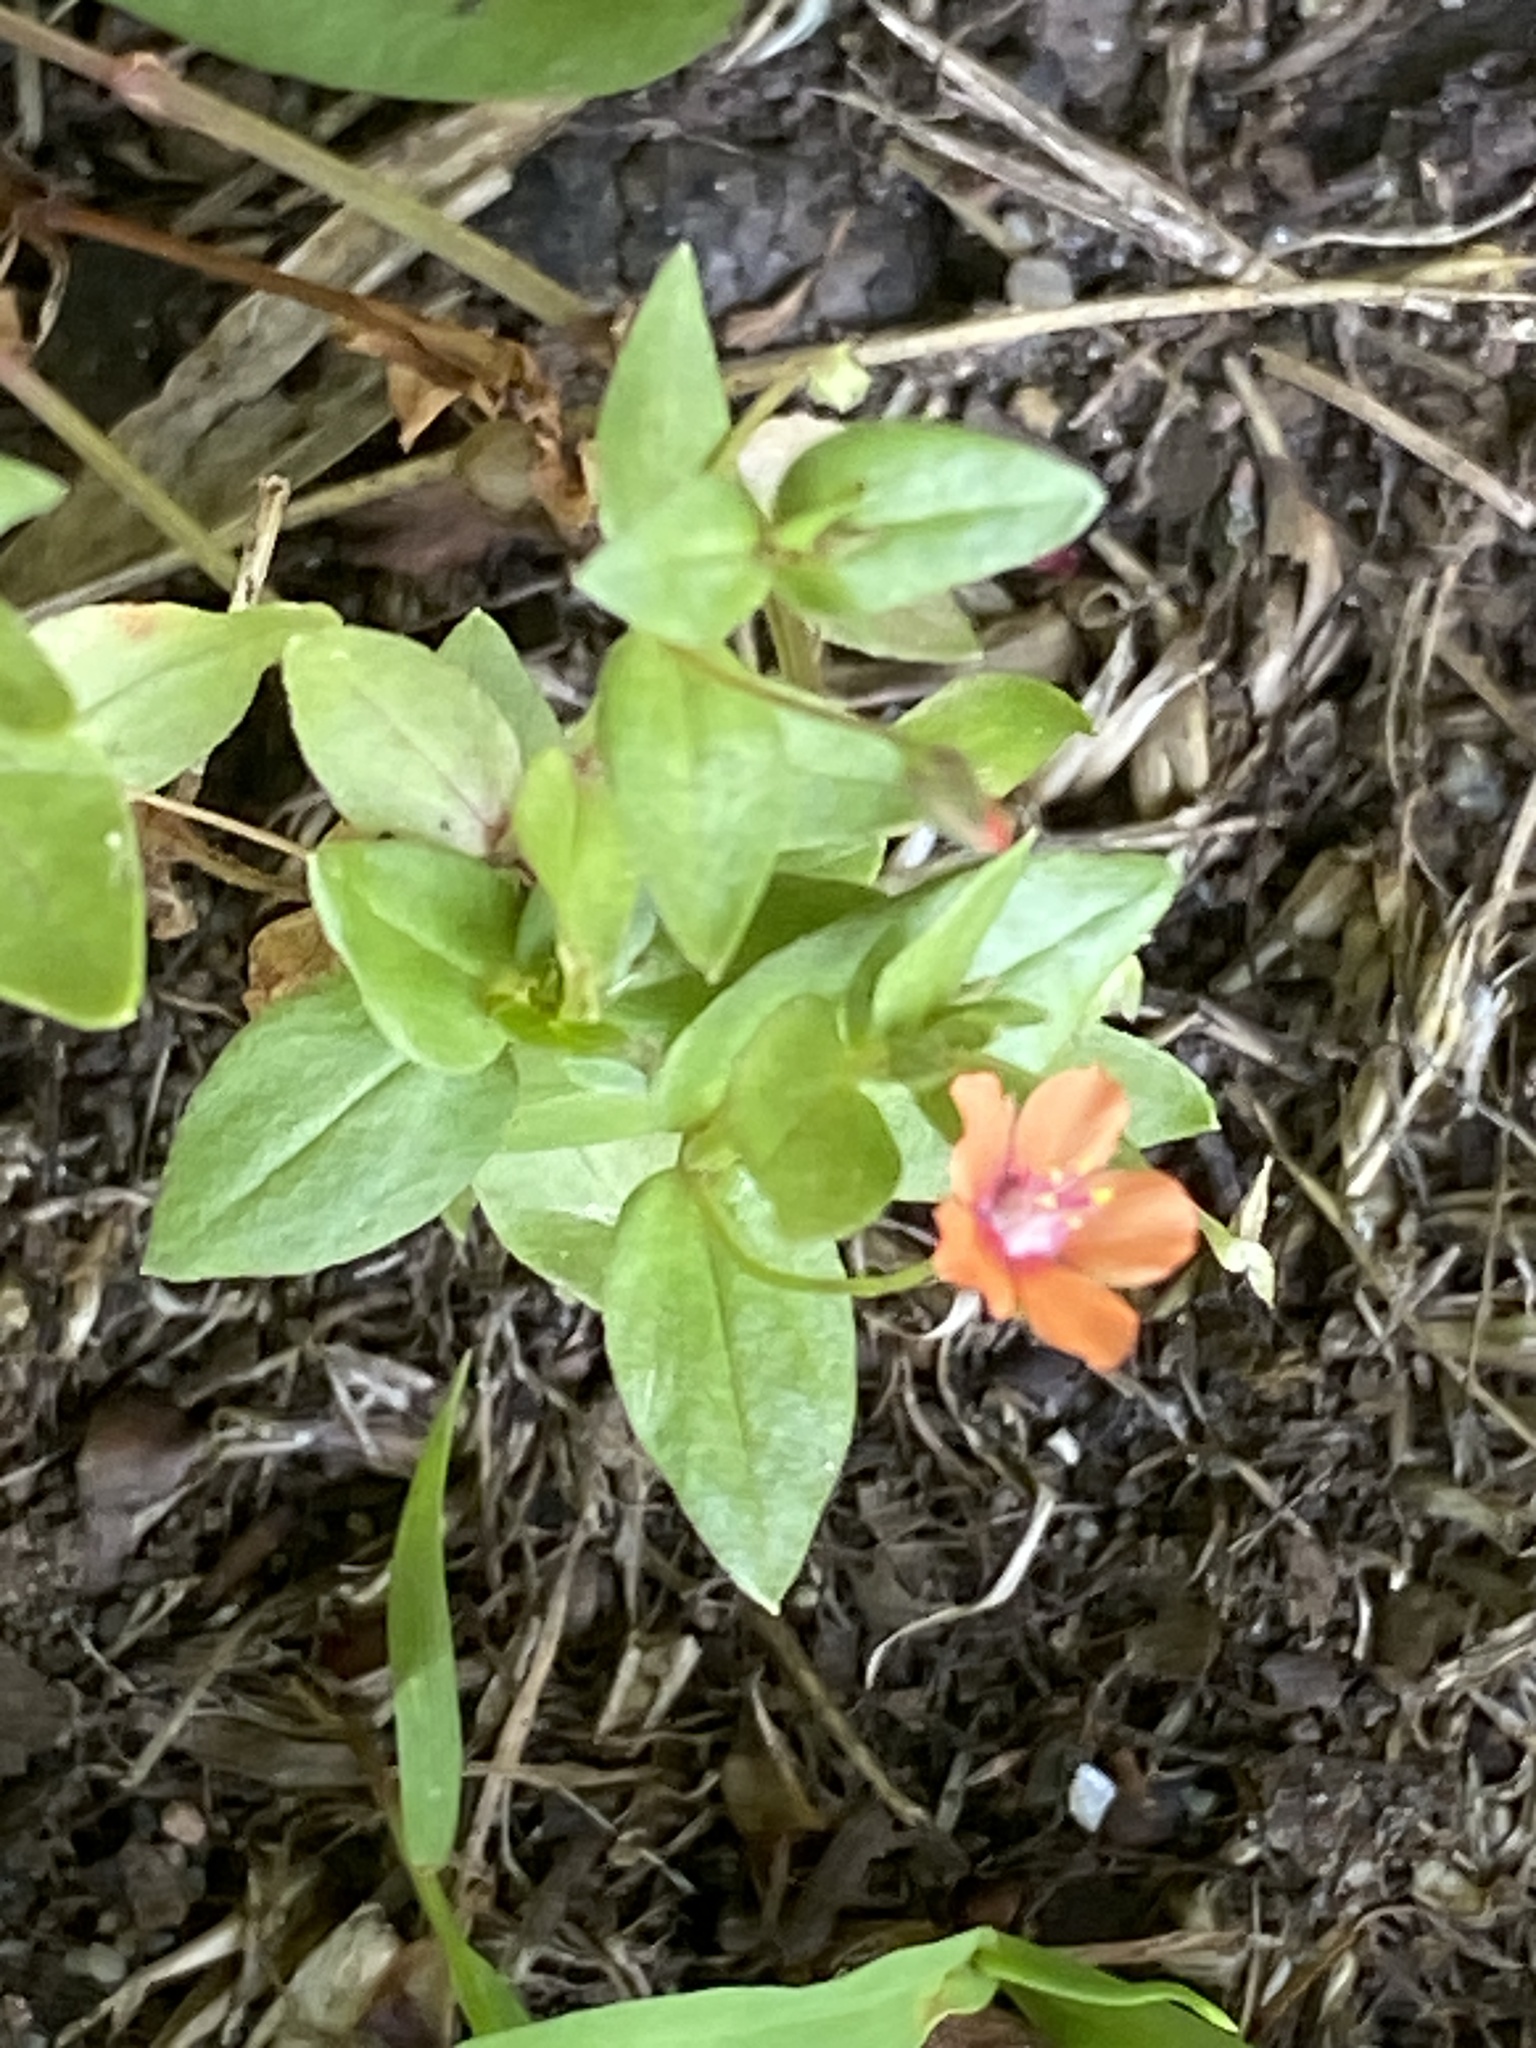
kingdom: Plantae
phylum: Tracheophyta
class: Magnoliopsida
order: Ericales
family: Primulaceae
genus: Lysimachia
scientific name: Lysimachia arvensis
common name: Scarlet pimpernel
